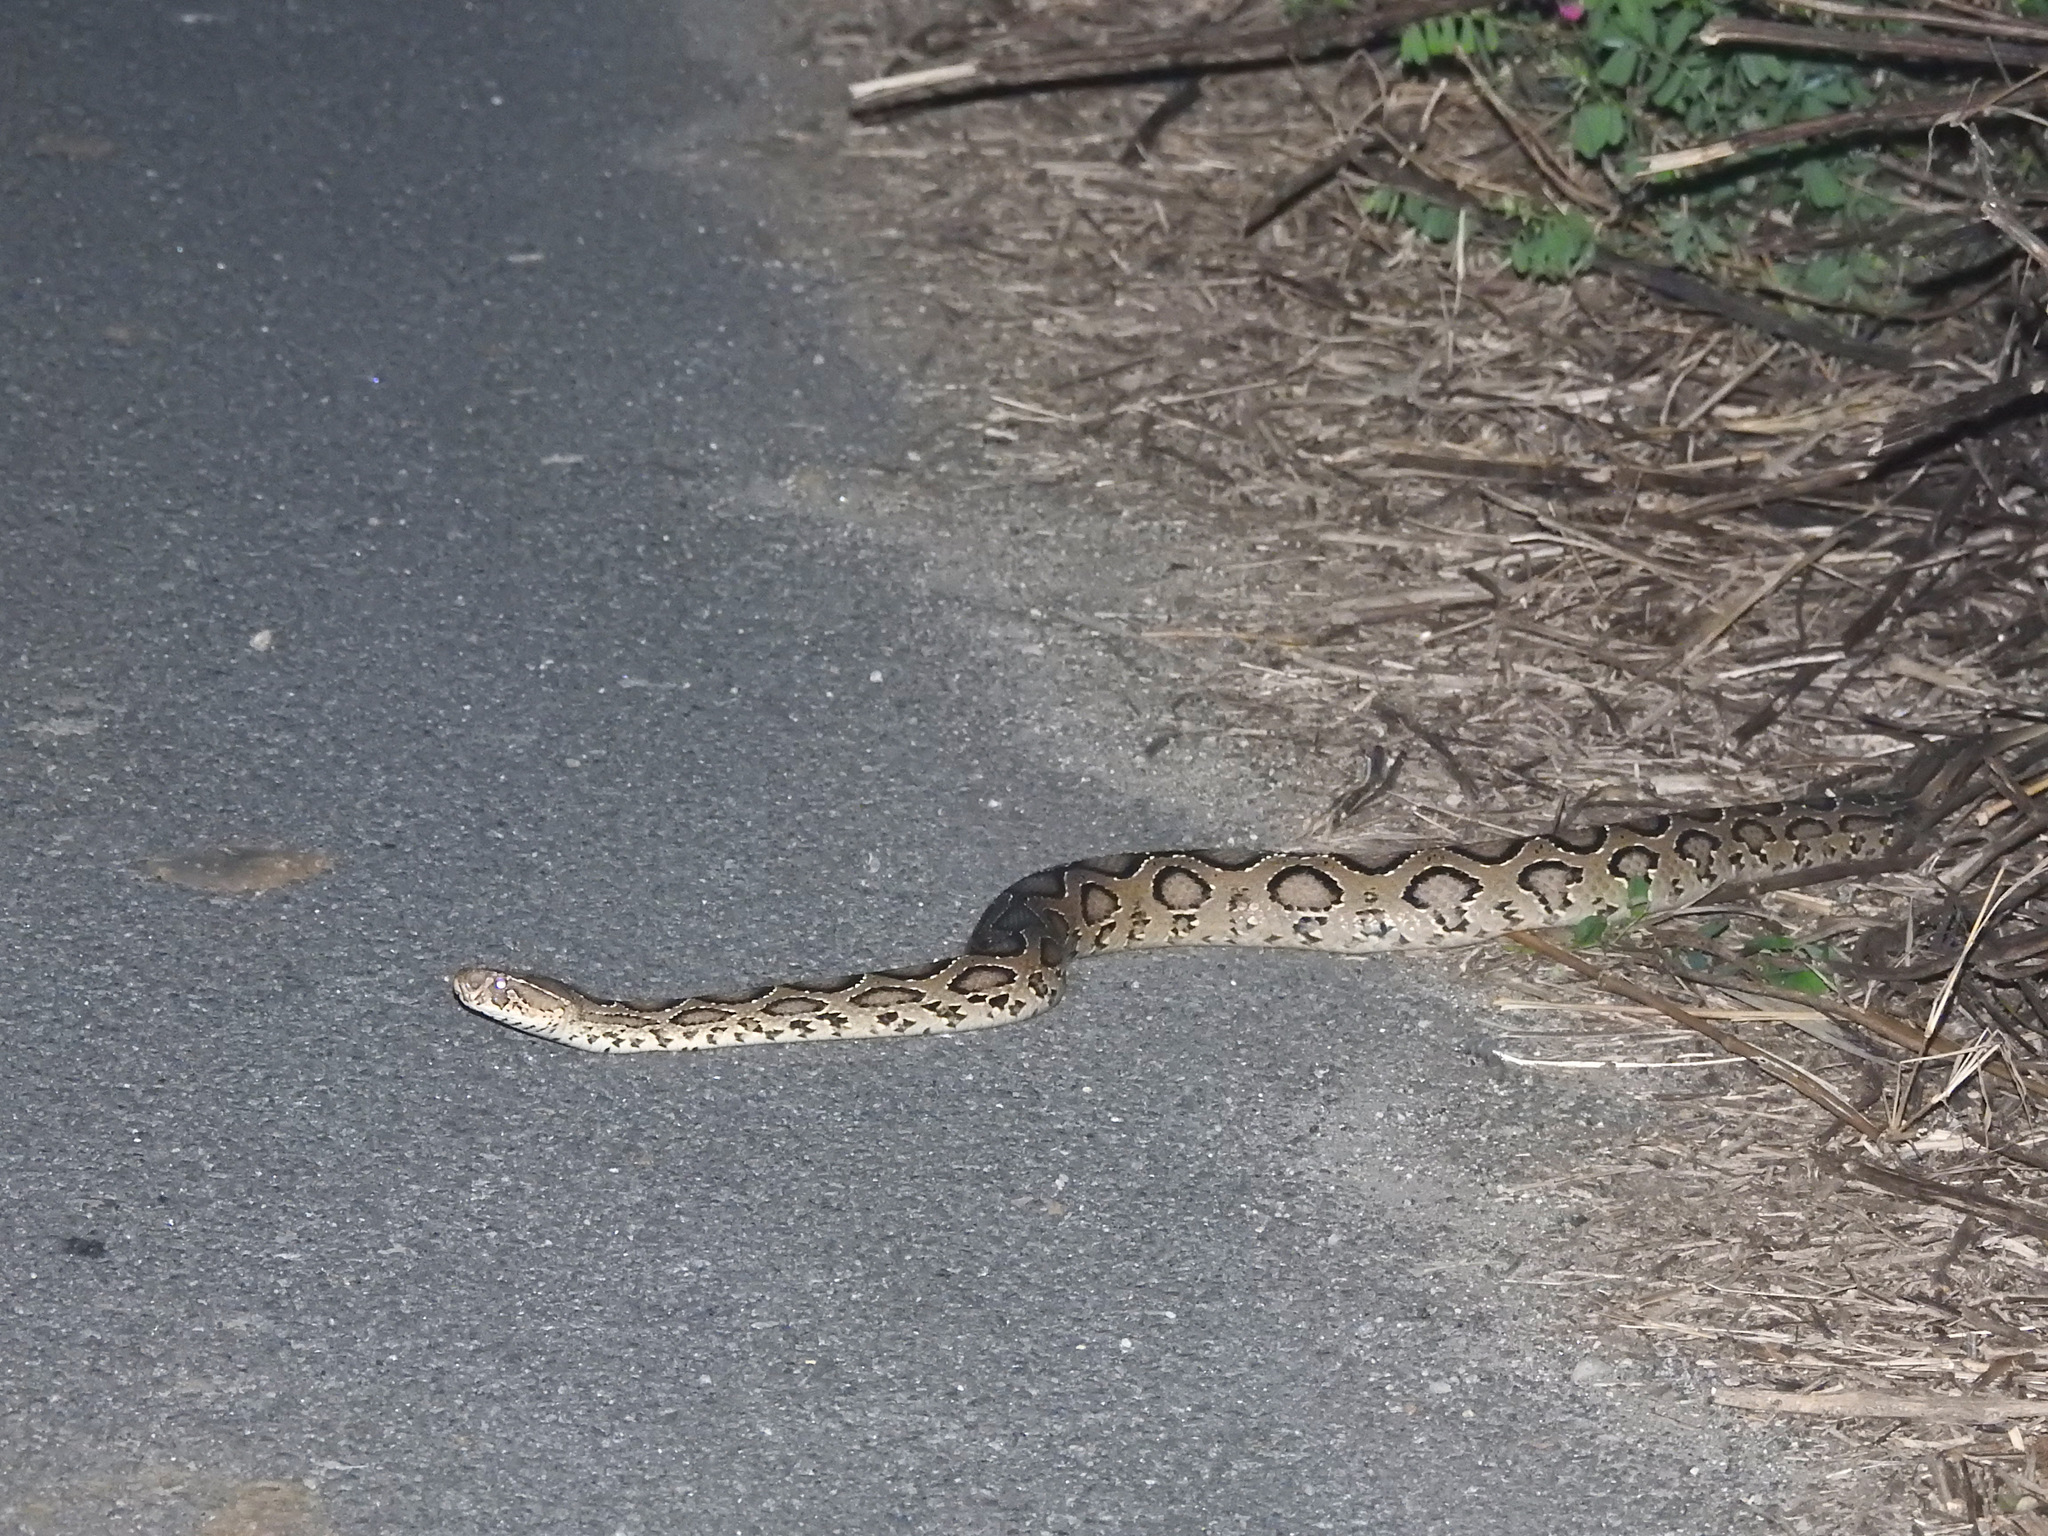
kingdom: Animalia
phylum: Chordata
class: Squamata
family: Viperidae
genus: Daboia
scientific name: Daboia russelii
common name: Western russel’s viper
